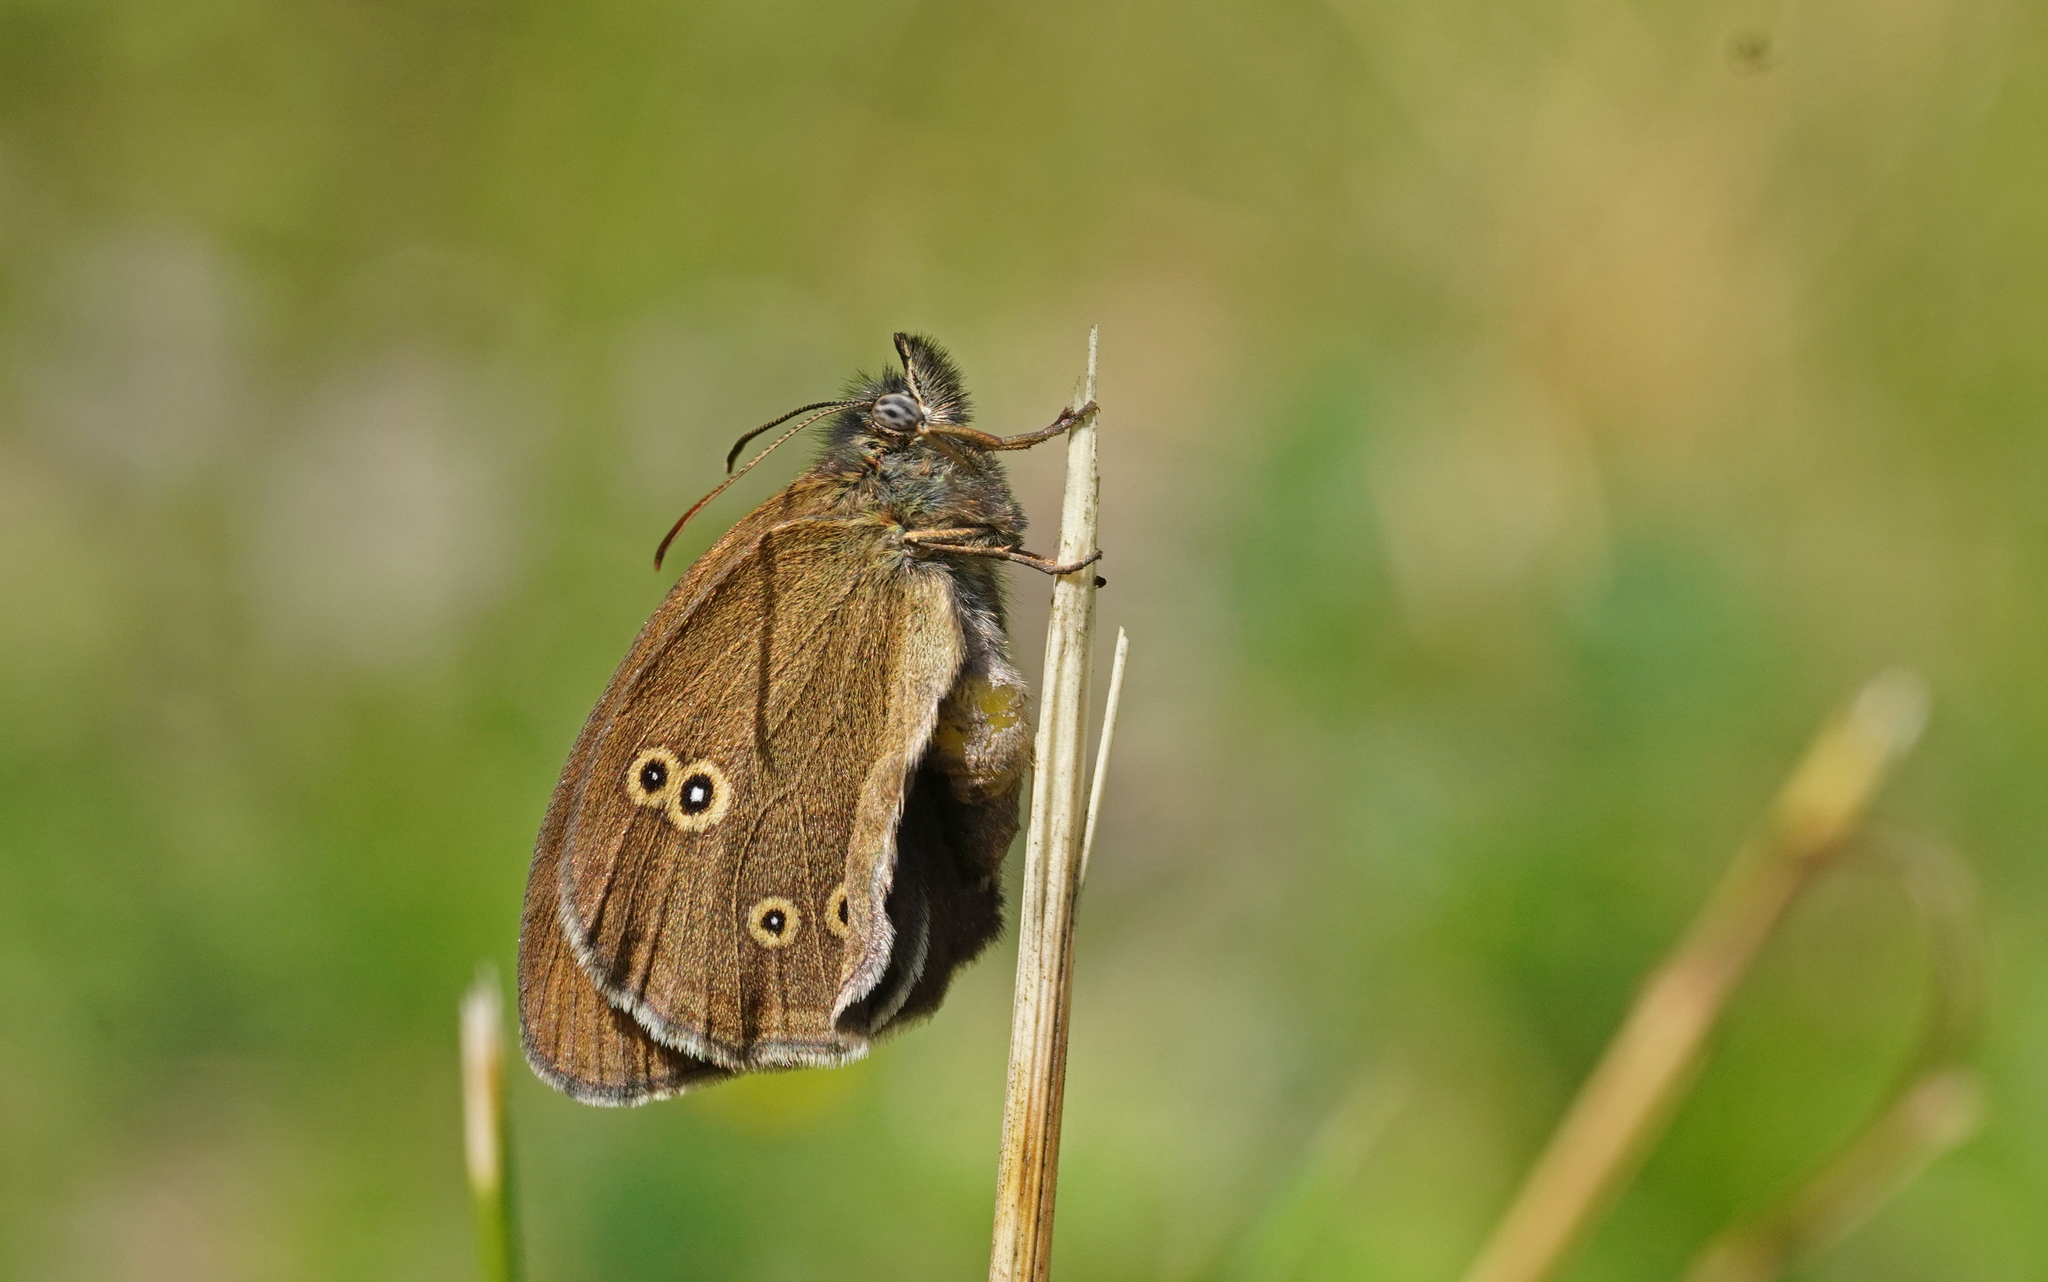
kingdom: Animalia
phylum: Arthropoda
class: Insecta
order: Lepidoptera
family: Nymphalidae
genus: Aphantopus
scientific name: Aphantopus hyperantus
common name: Ringlet
